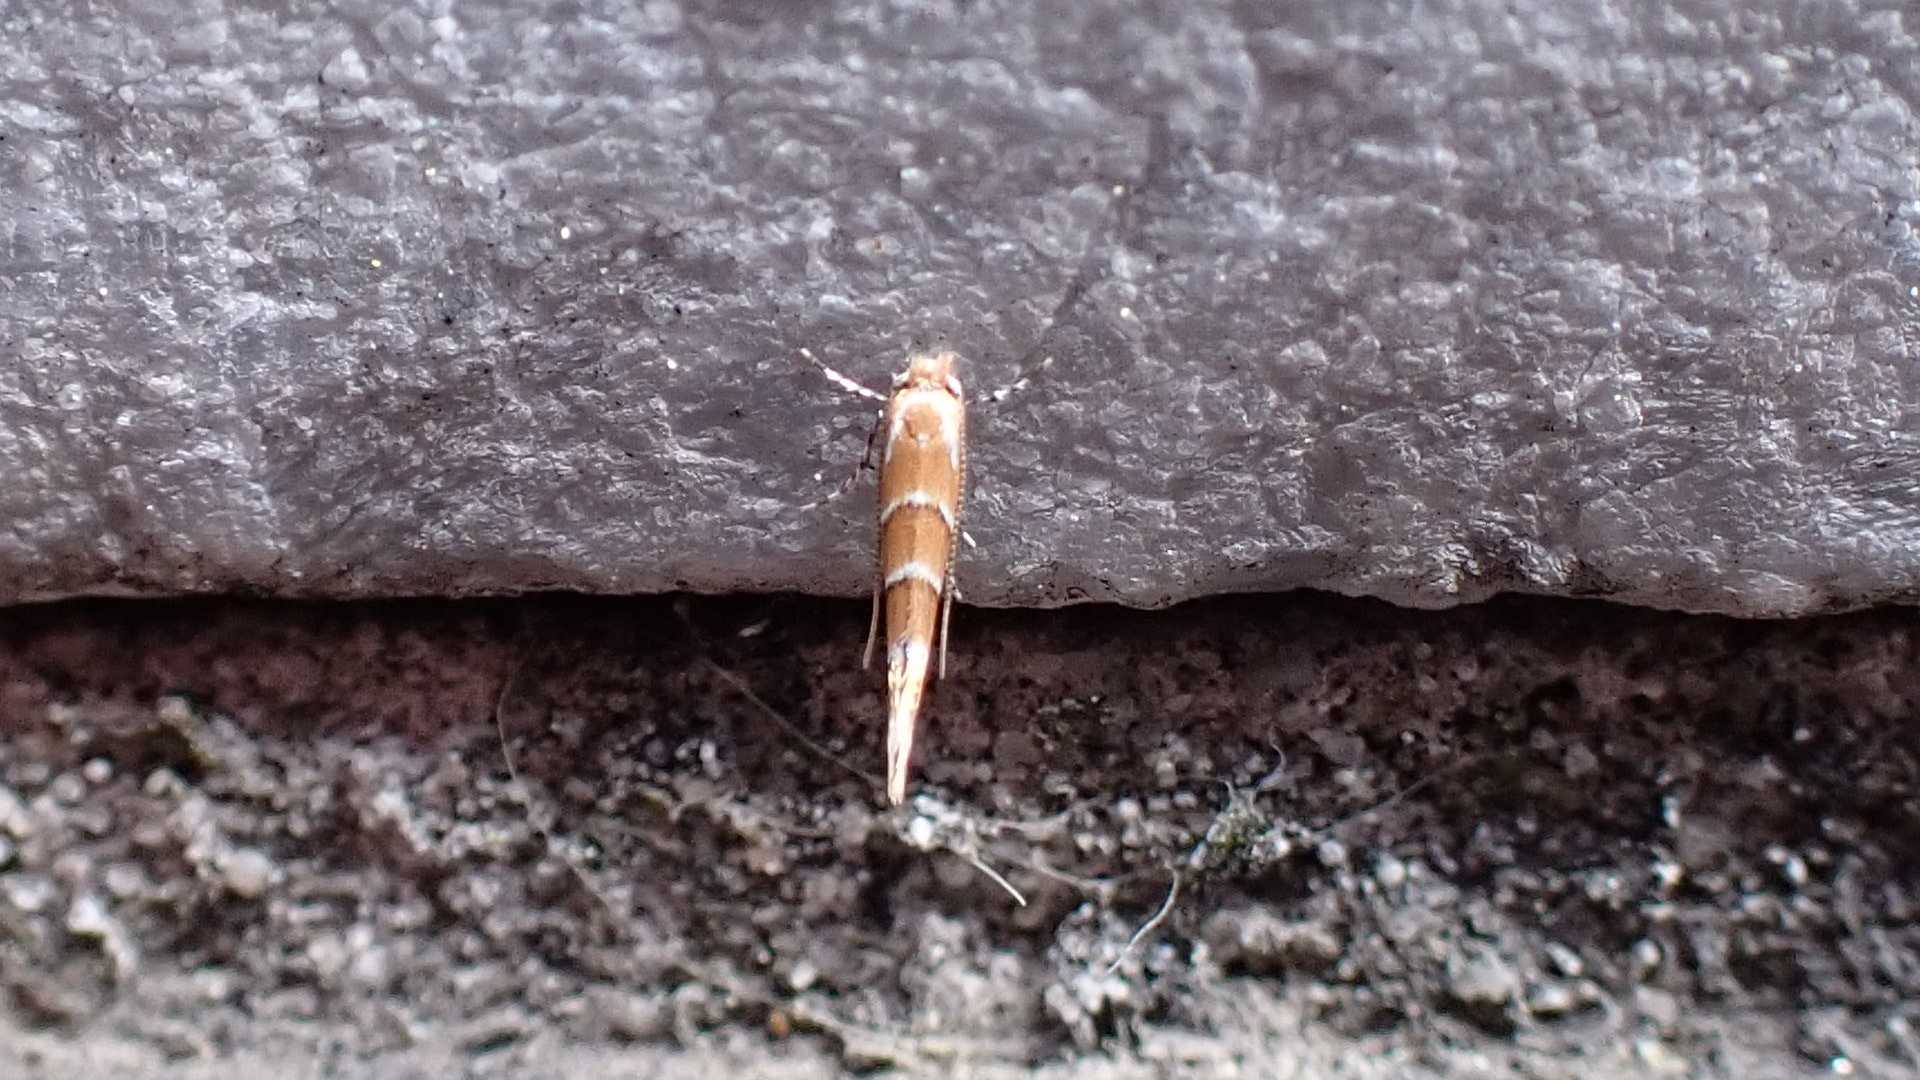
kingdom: Animalia
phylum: Arthropoda
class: Insecta
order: Lepidoptera
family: Gracillariidae
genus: Cameraria
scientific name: Cameraria ohridella
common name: Horse-chestnut leaf-miner
